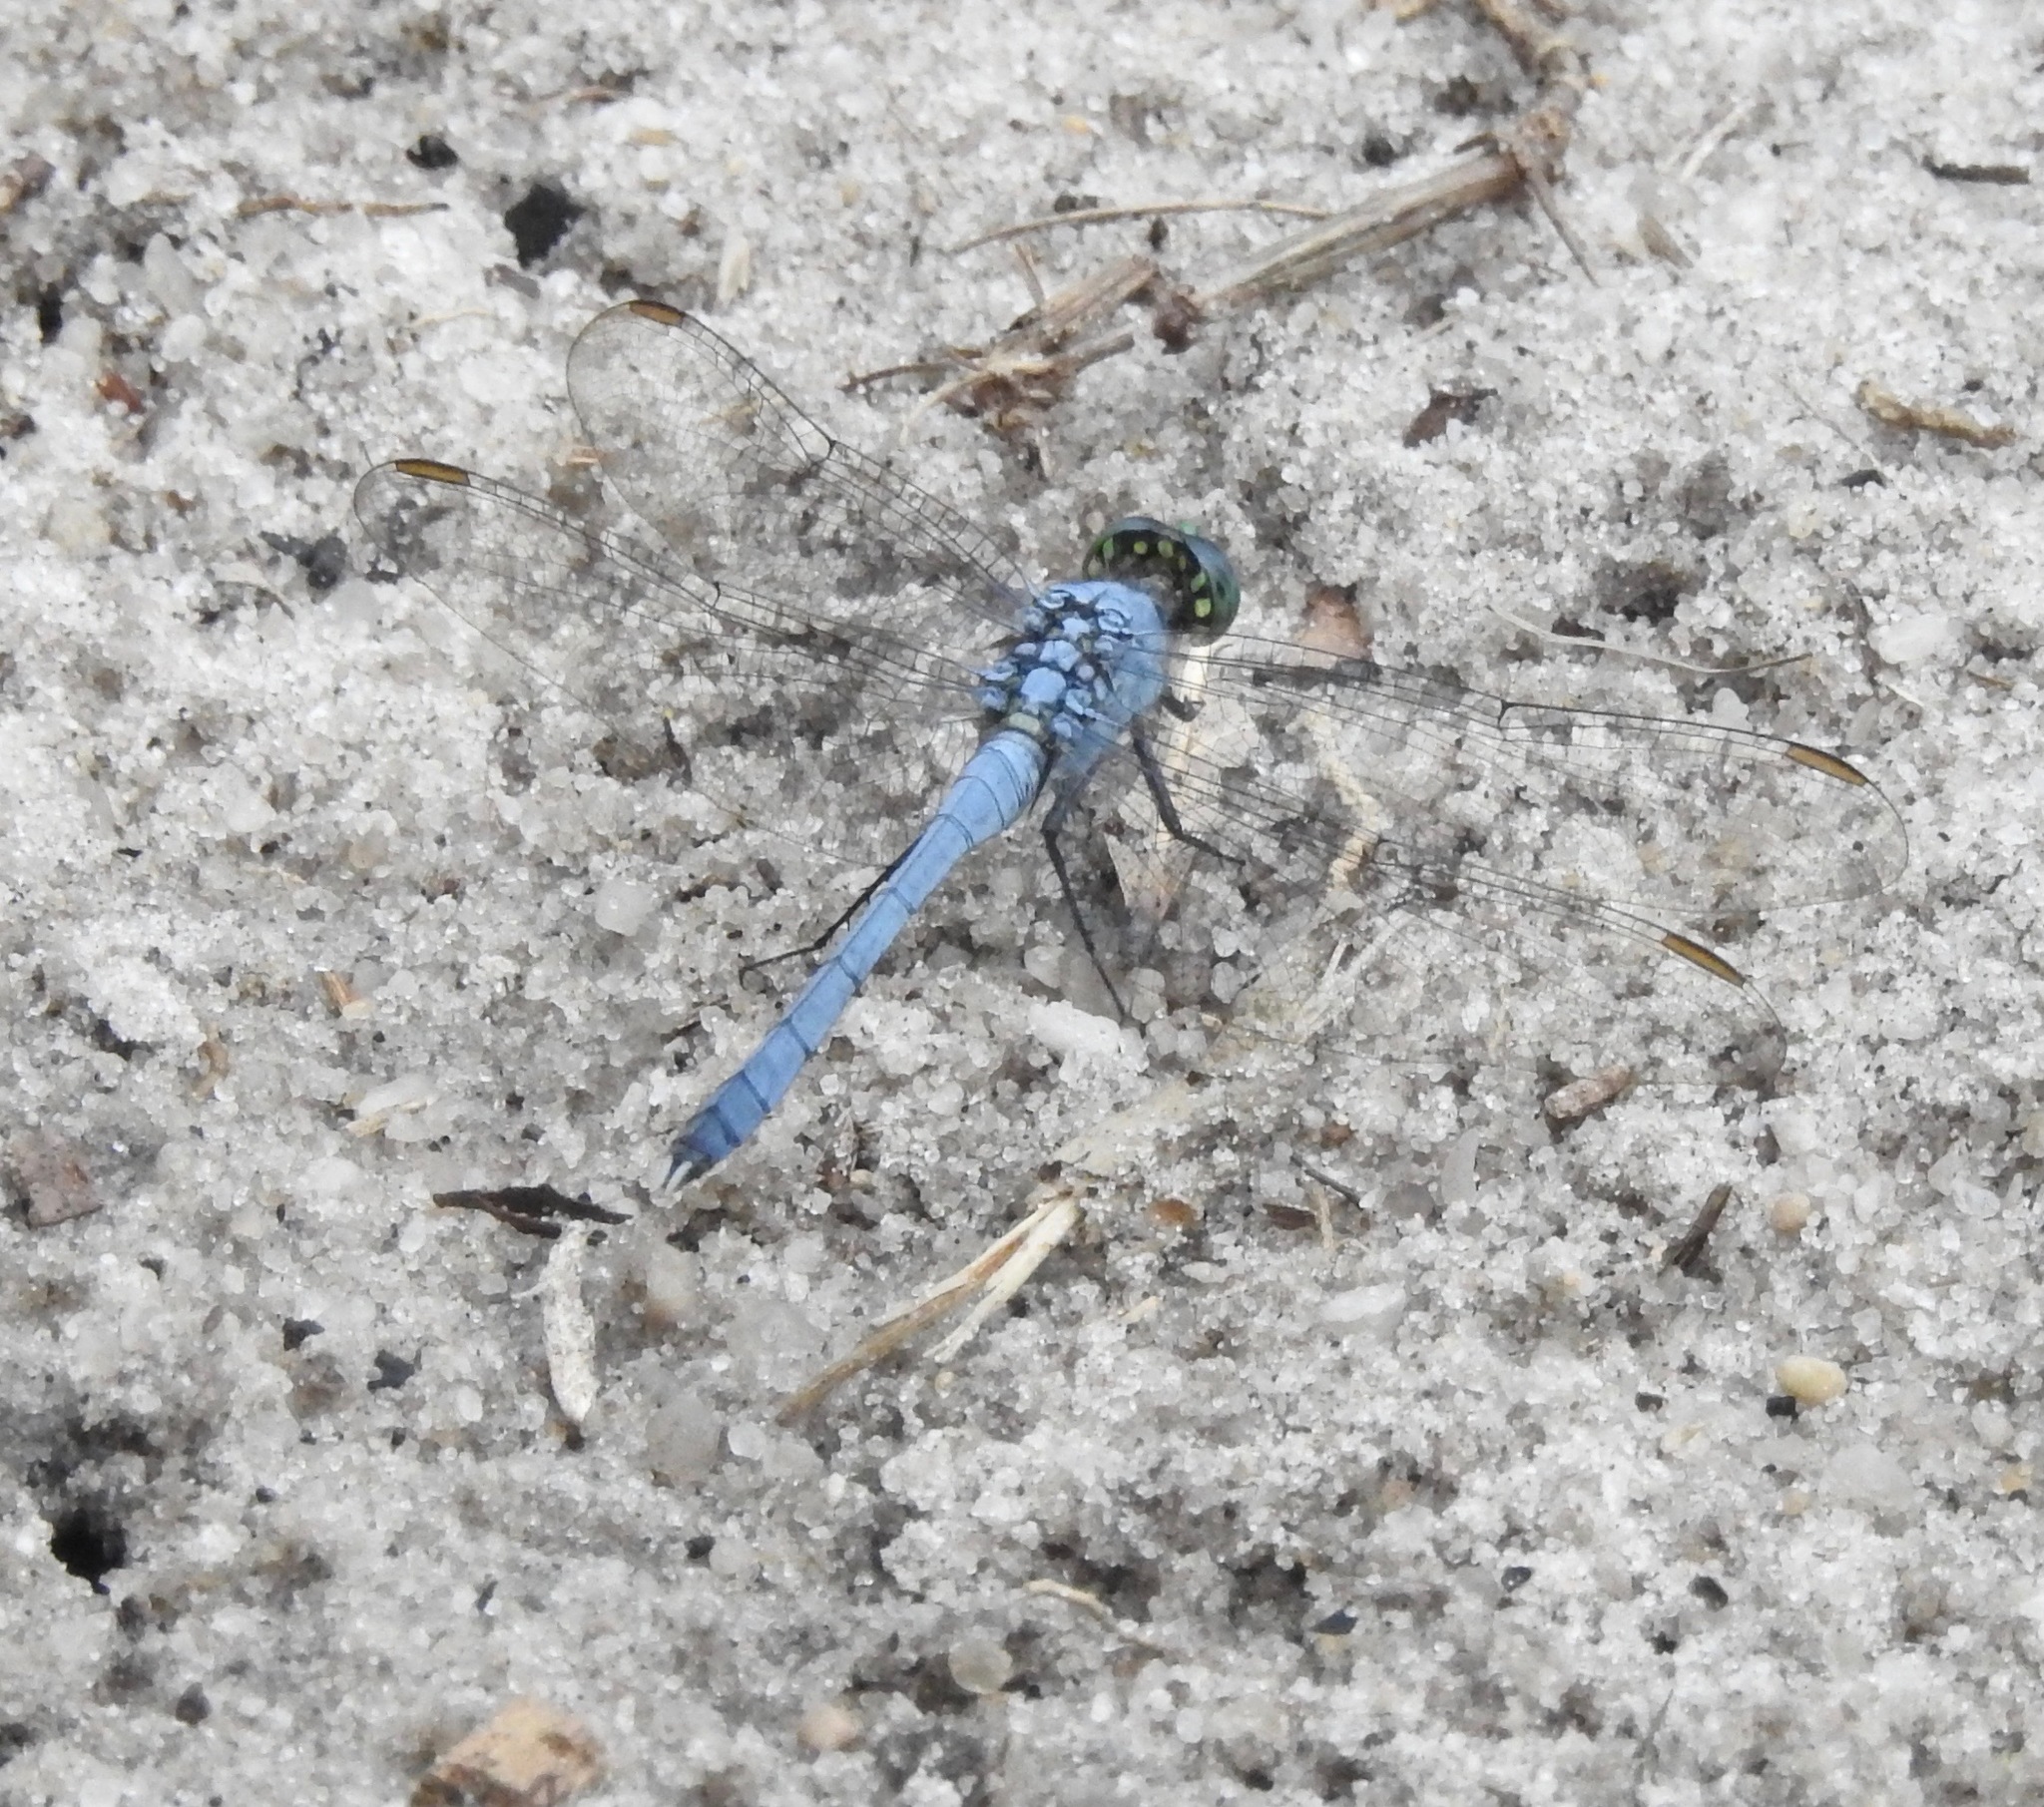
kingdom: Animalia
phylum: Arthropoda
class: Insecta
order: Odonata
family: Libellulidae
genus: Erythemis
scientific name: Erythemis simplicicollis
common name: Eastern pondhawk
